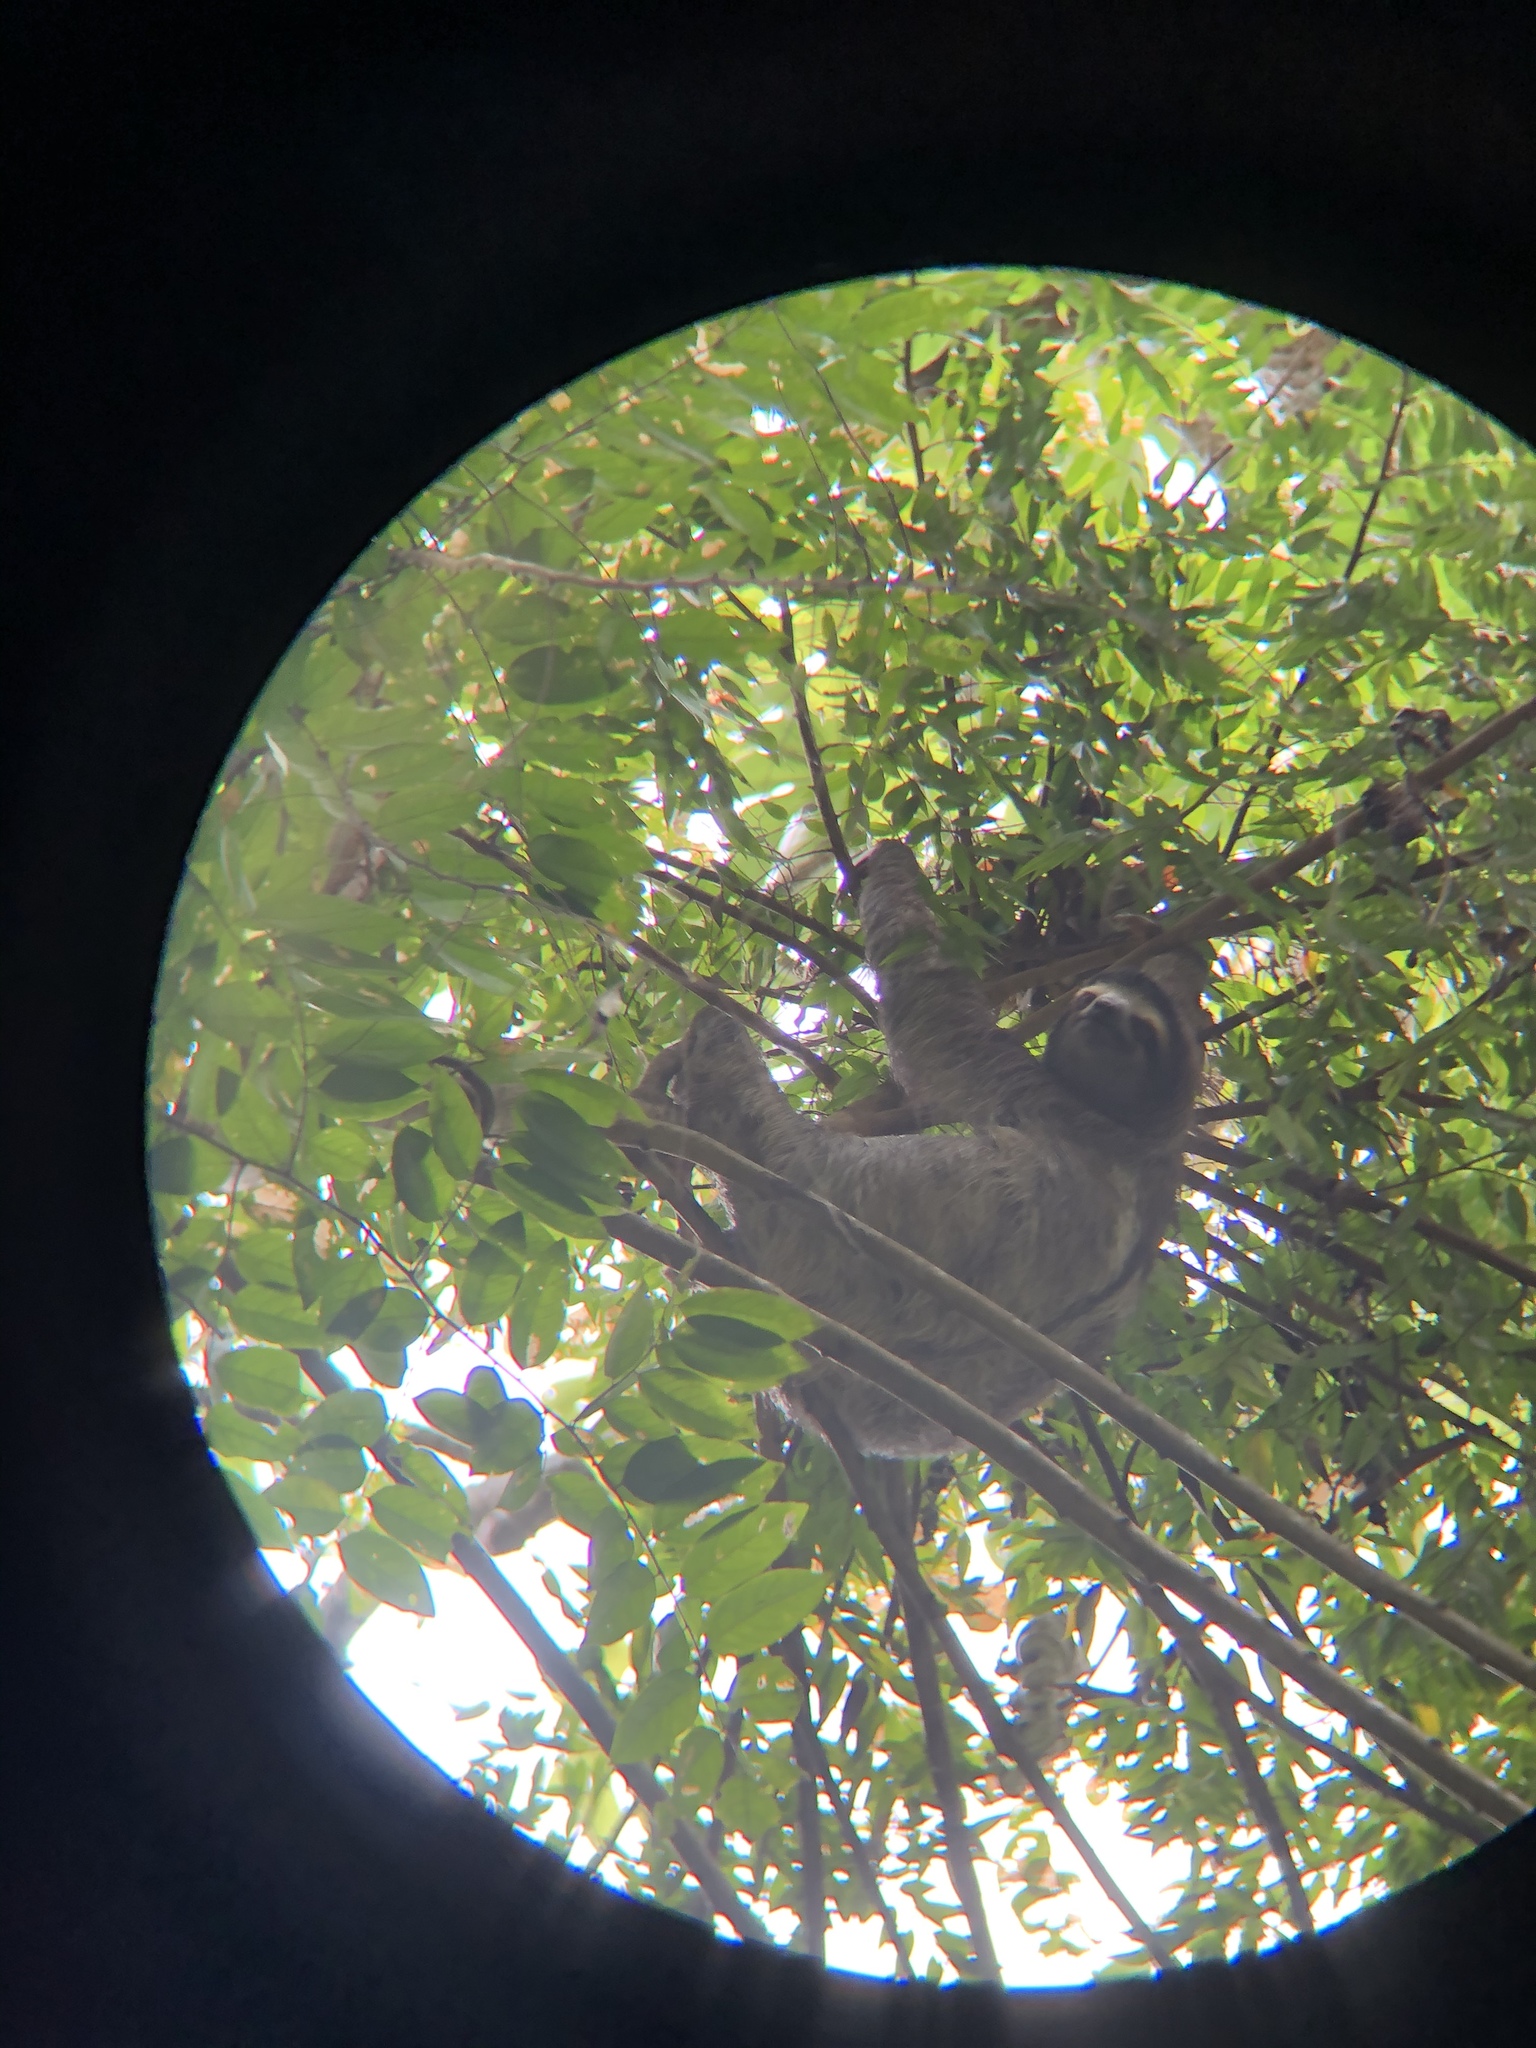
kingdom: Animalia
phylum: Chordata
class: Mammalia
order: Pilosa
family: Bradypodidae
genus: Bradypus
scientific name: Bradypus variegatus
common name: Brown-throated three-toed sloth
